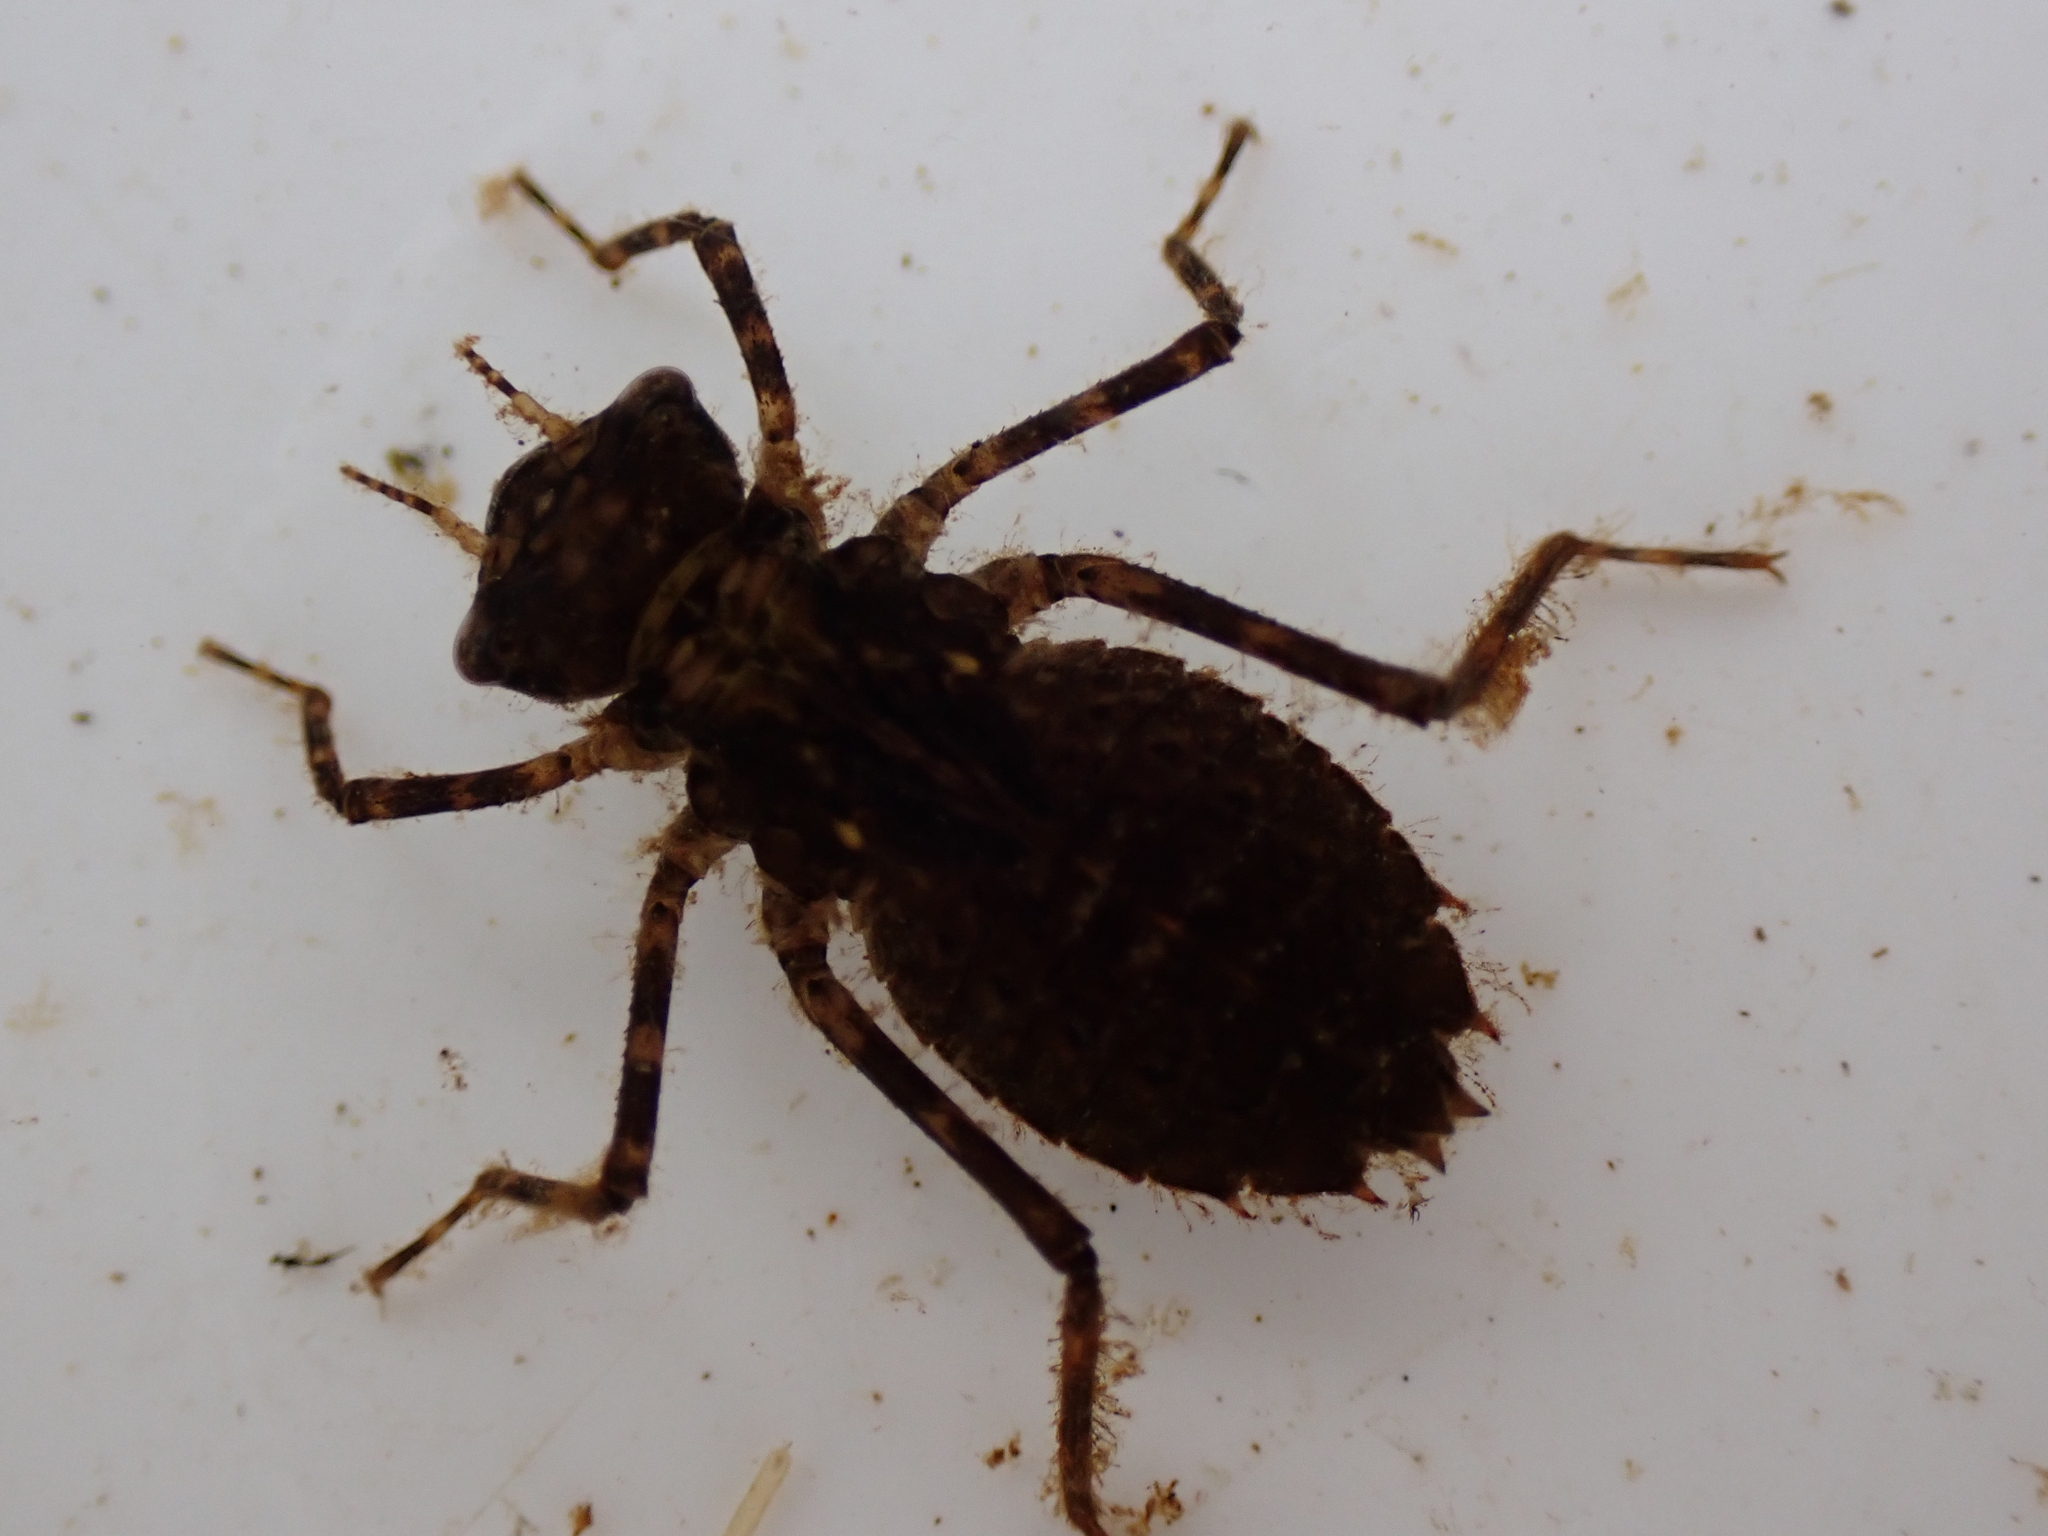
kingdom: Animalia
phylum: Arthropoda
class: Insecta
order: Odonata
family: Corduliidae
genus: Antipodochlora
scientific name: Antipodochlora braueri
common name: Dusk dragonfly
